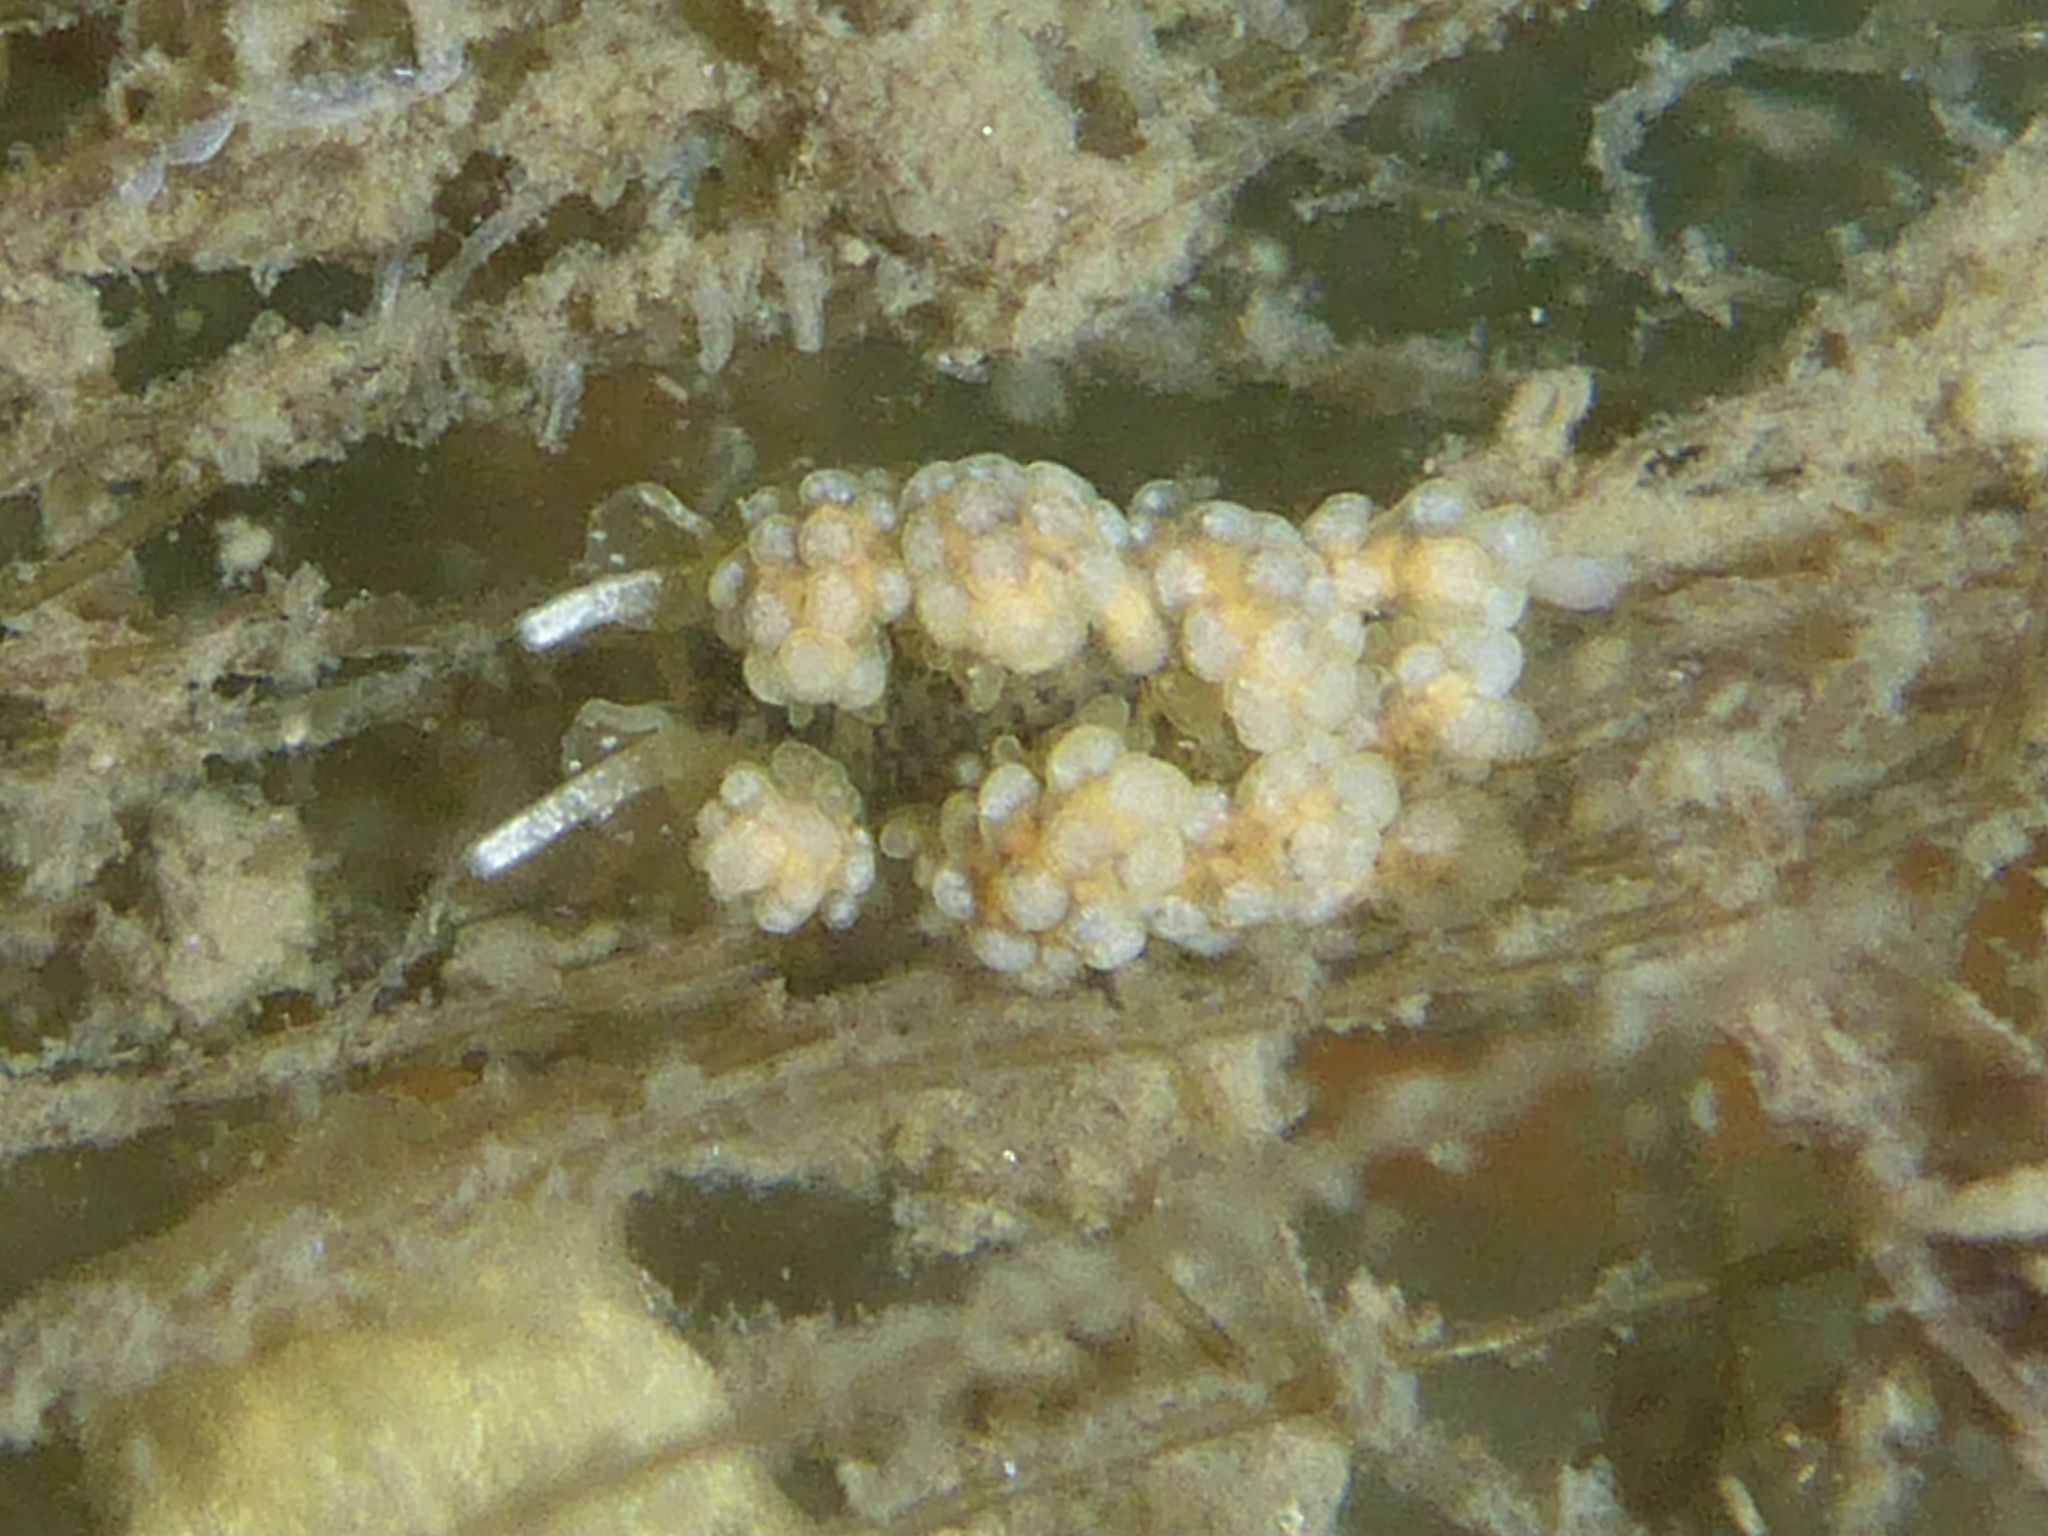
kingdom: Animalia
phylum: Mollusca
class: Gastropoda
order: Nudibranchia
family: Dotidae
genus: Doto
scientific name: Doto kya
